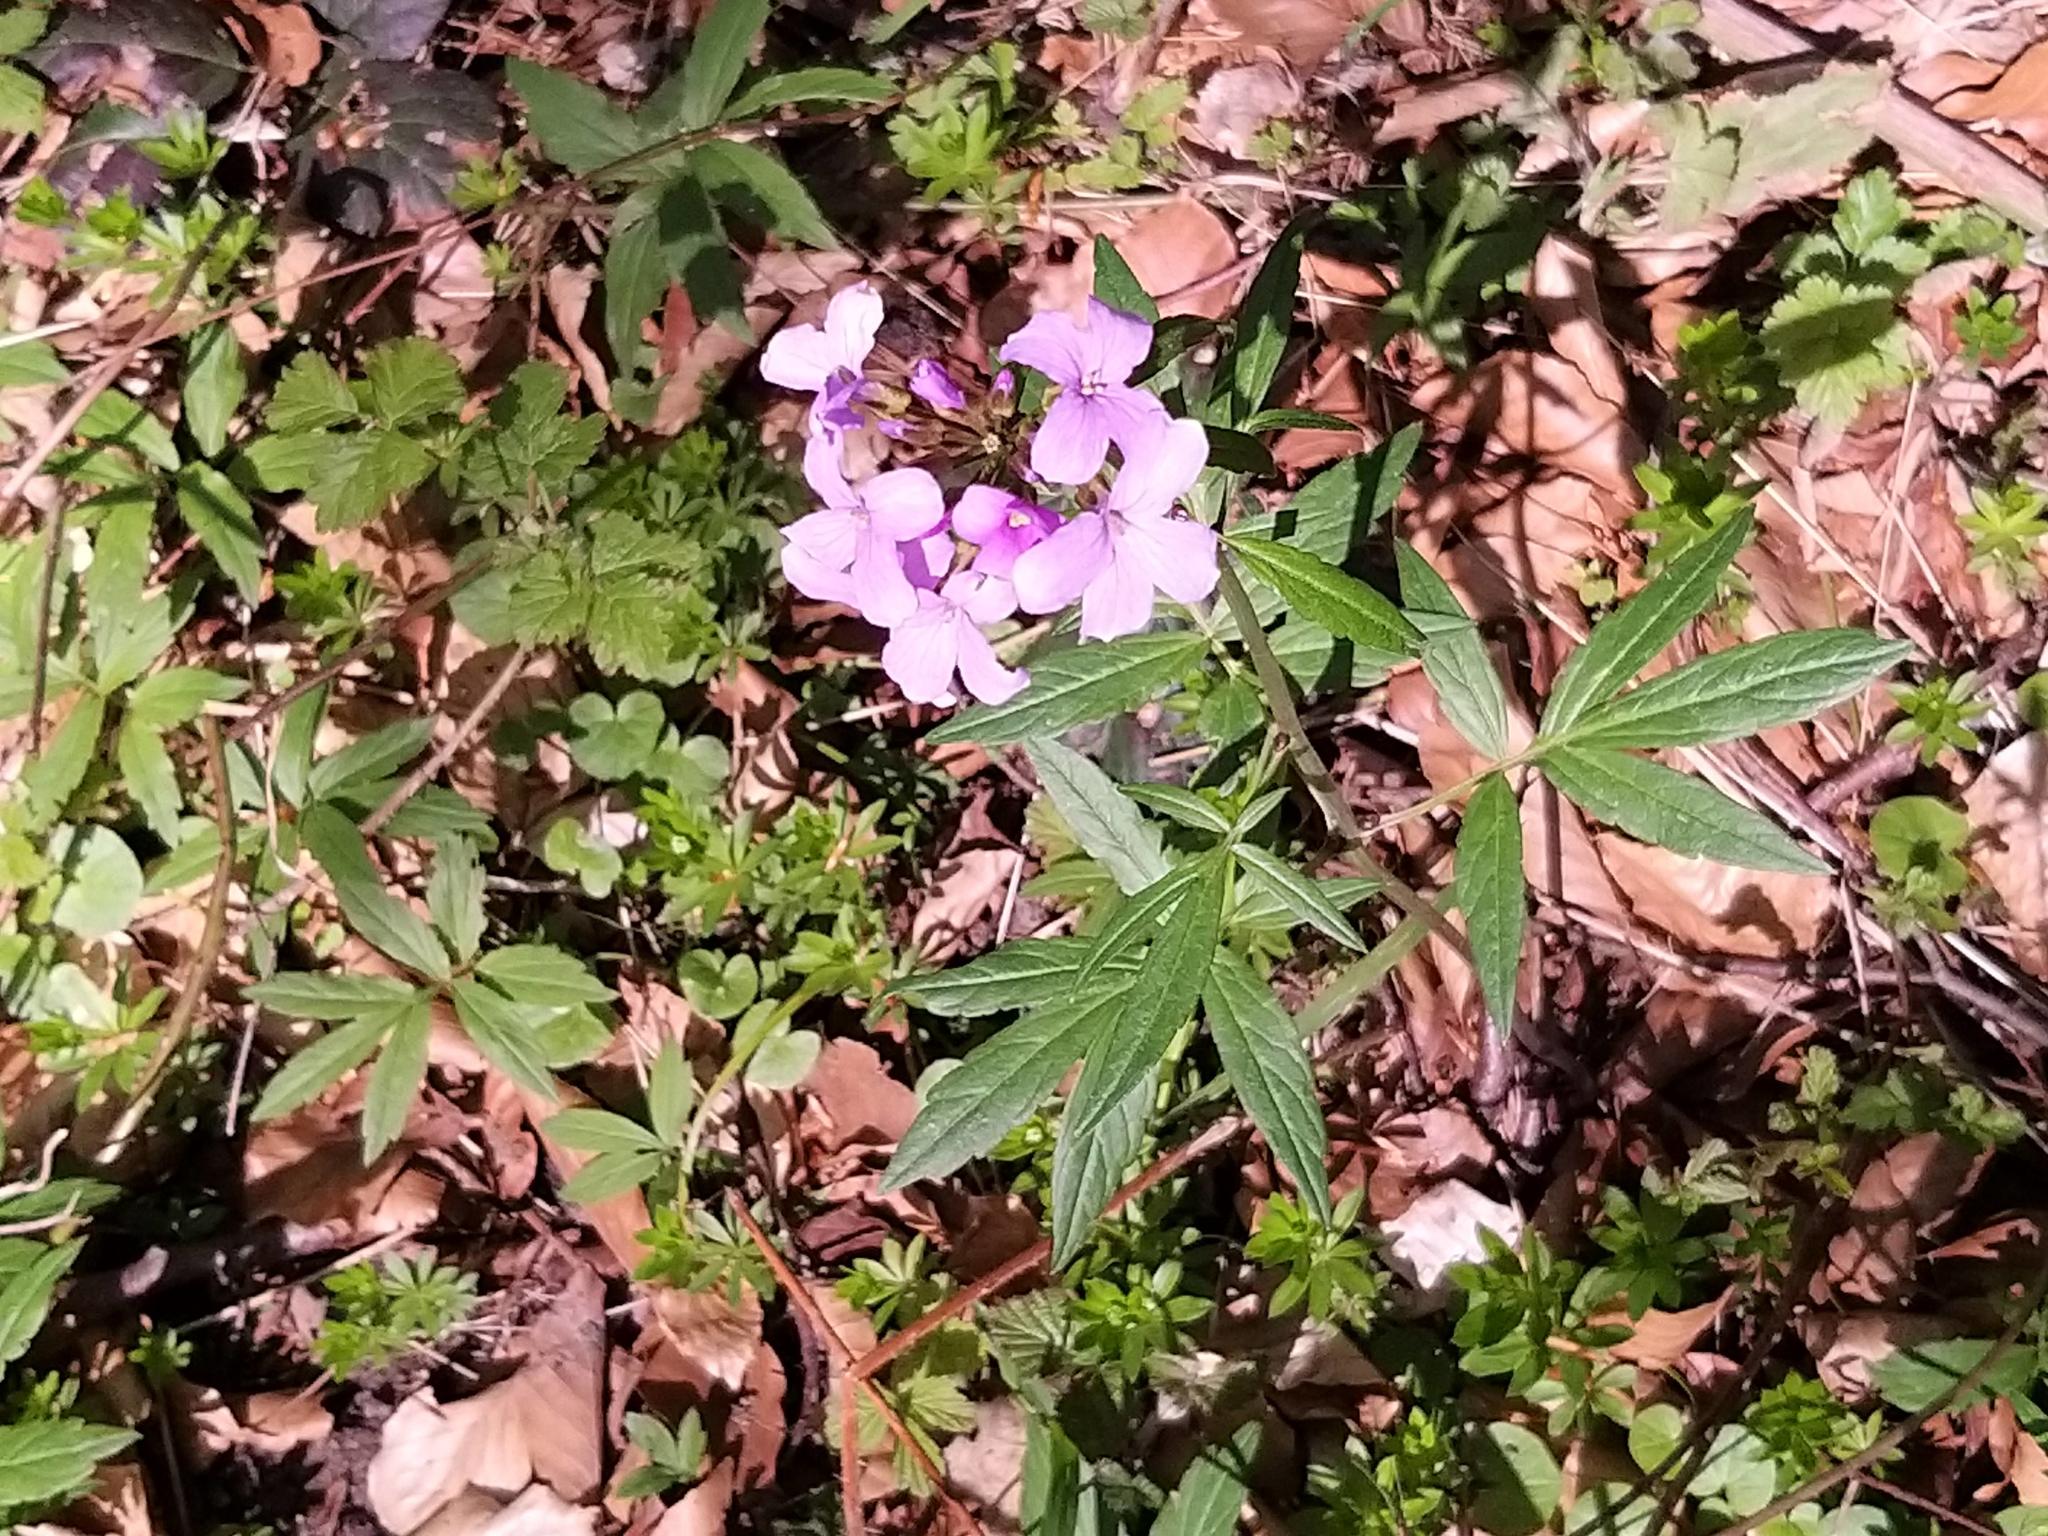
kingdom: Plantae
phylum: Tracheophyta
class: Magnoliopsida
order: Brassicales
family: Brassicaceae
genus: Cardamine
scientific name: Cardamine bulbifera
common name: Coralroot bittercress
